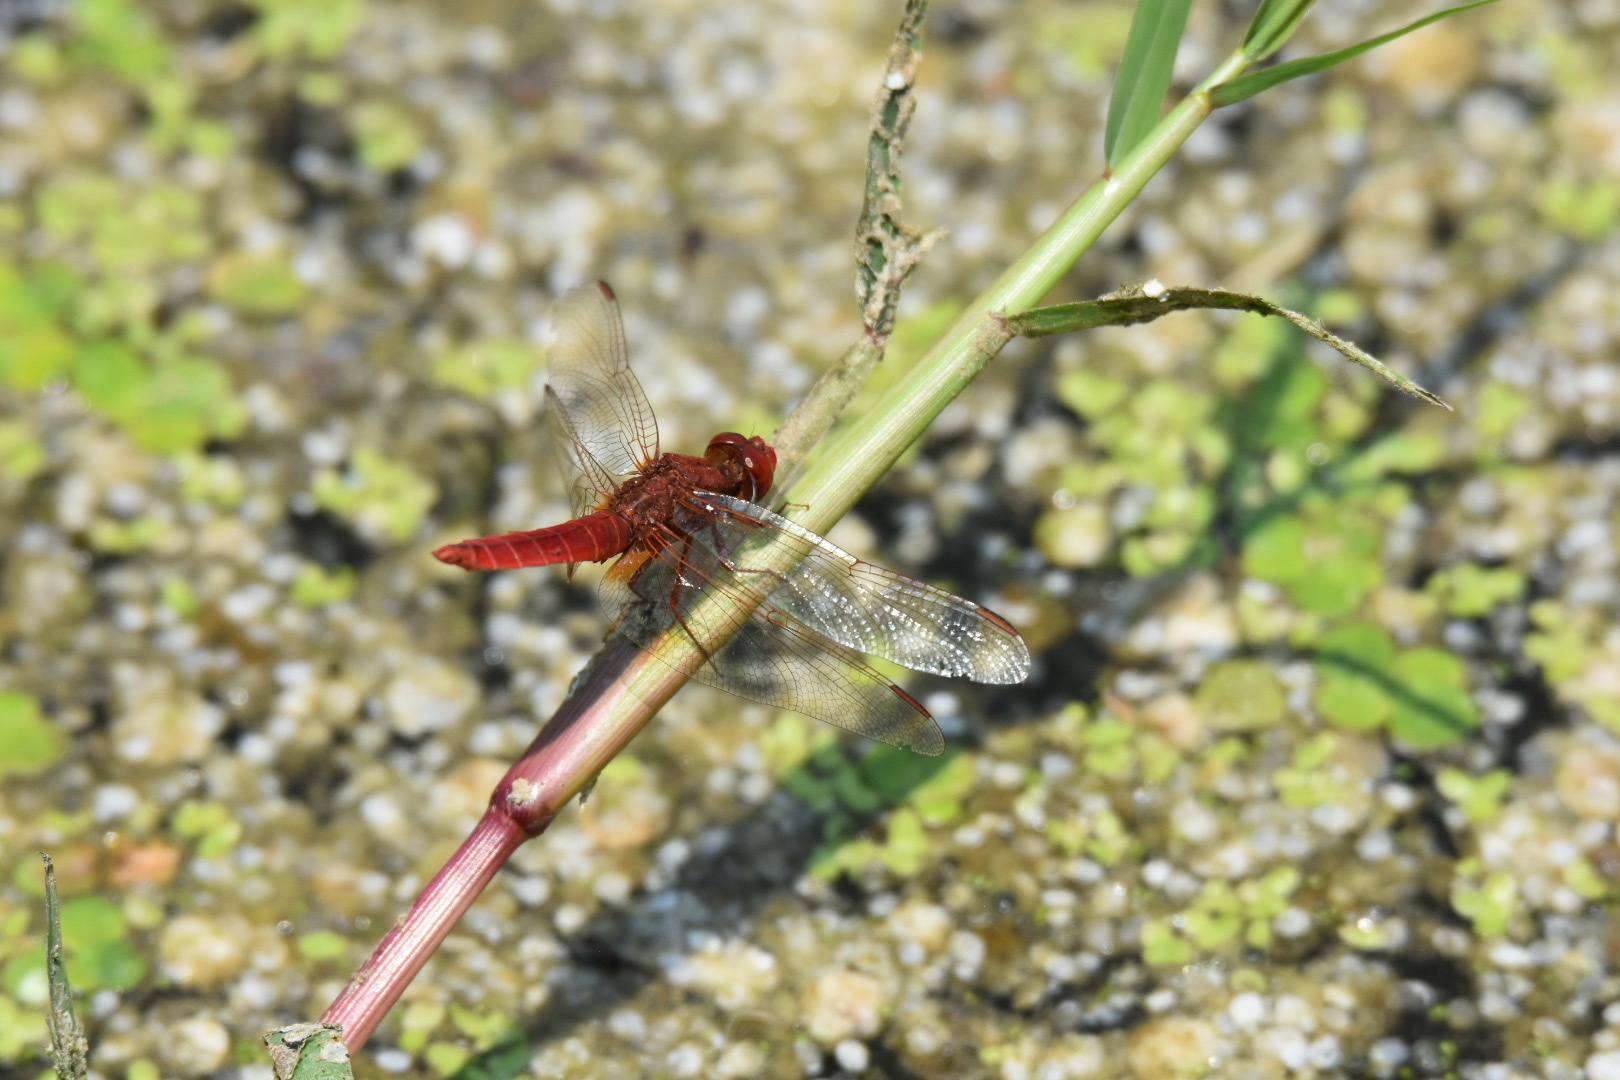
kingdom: Animalia
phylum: Arthropoda
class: Insecta
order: Odonata
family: Libellulidae
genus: Crocothemis
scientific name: Crocothemis erythraea
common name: Scarlet dragonfly
